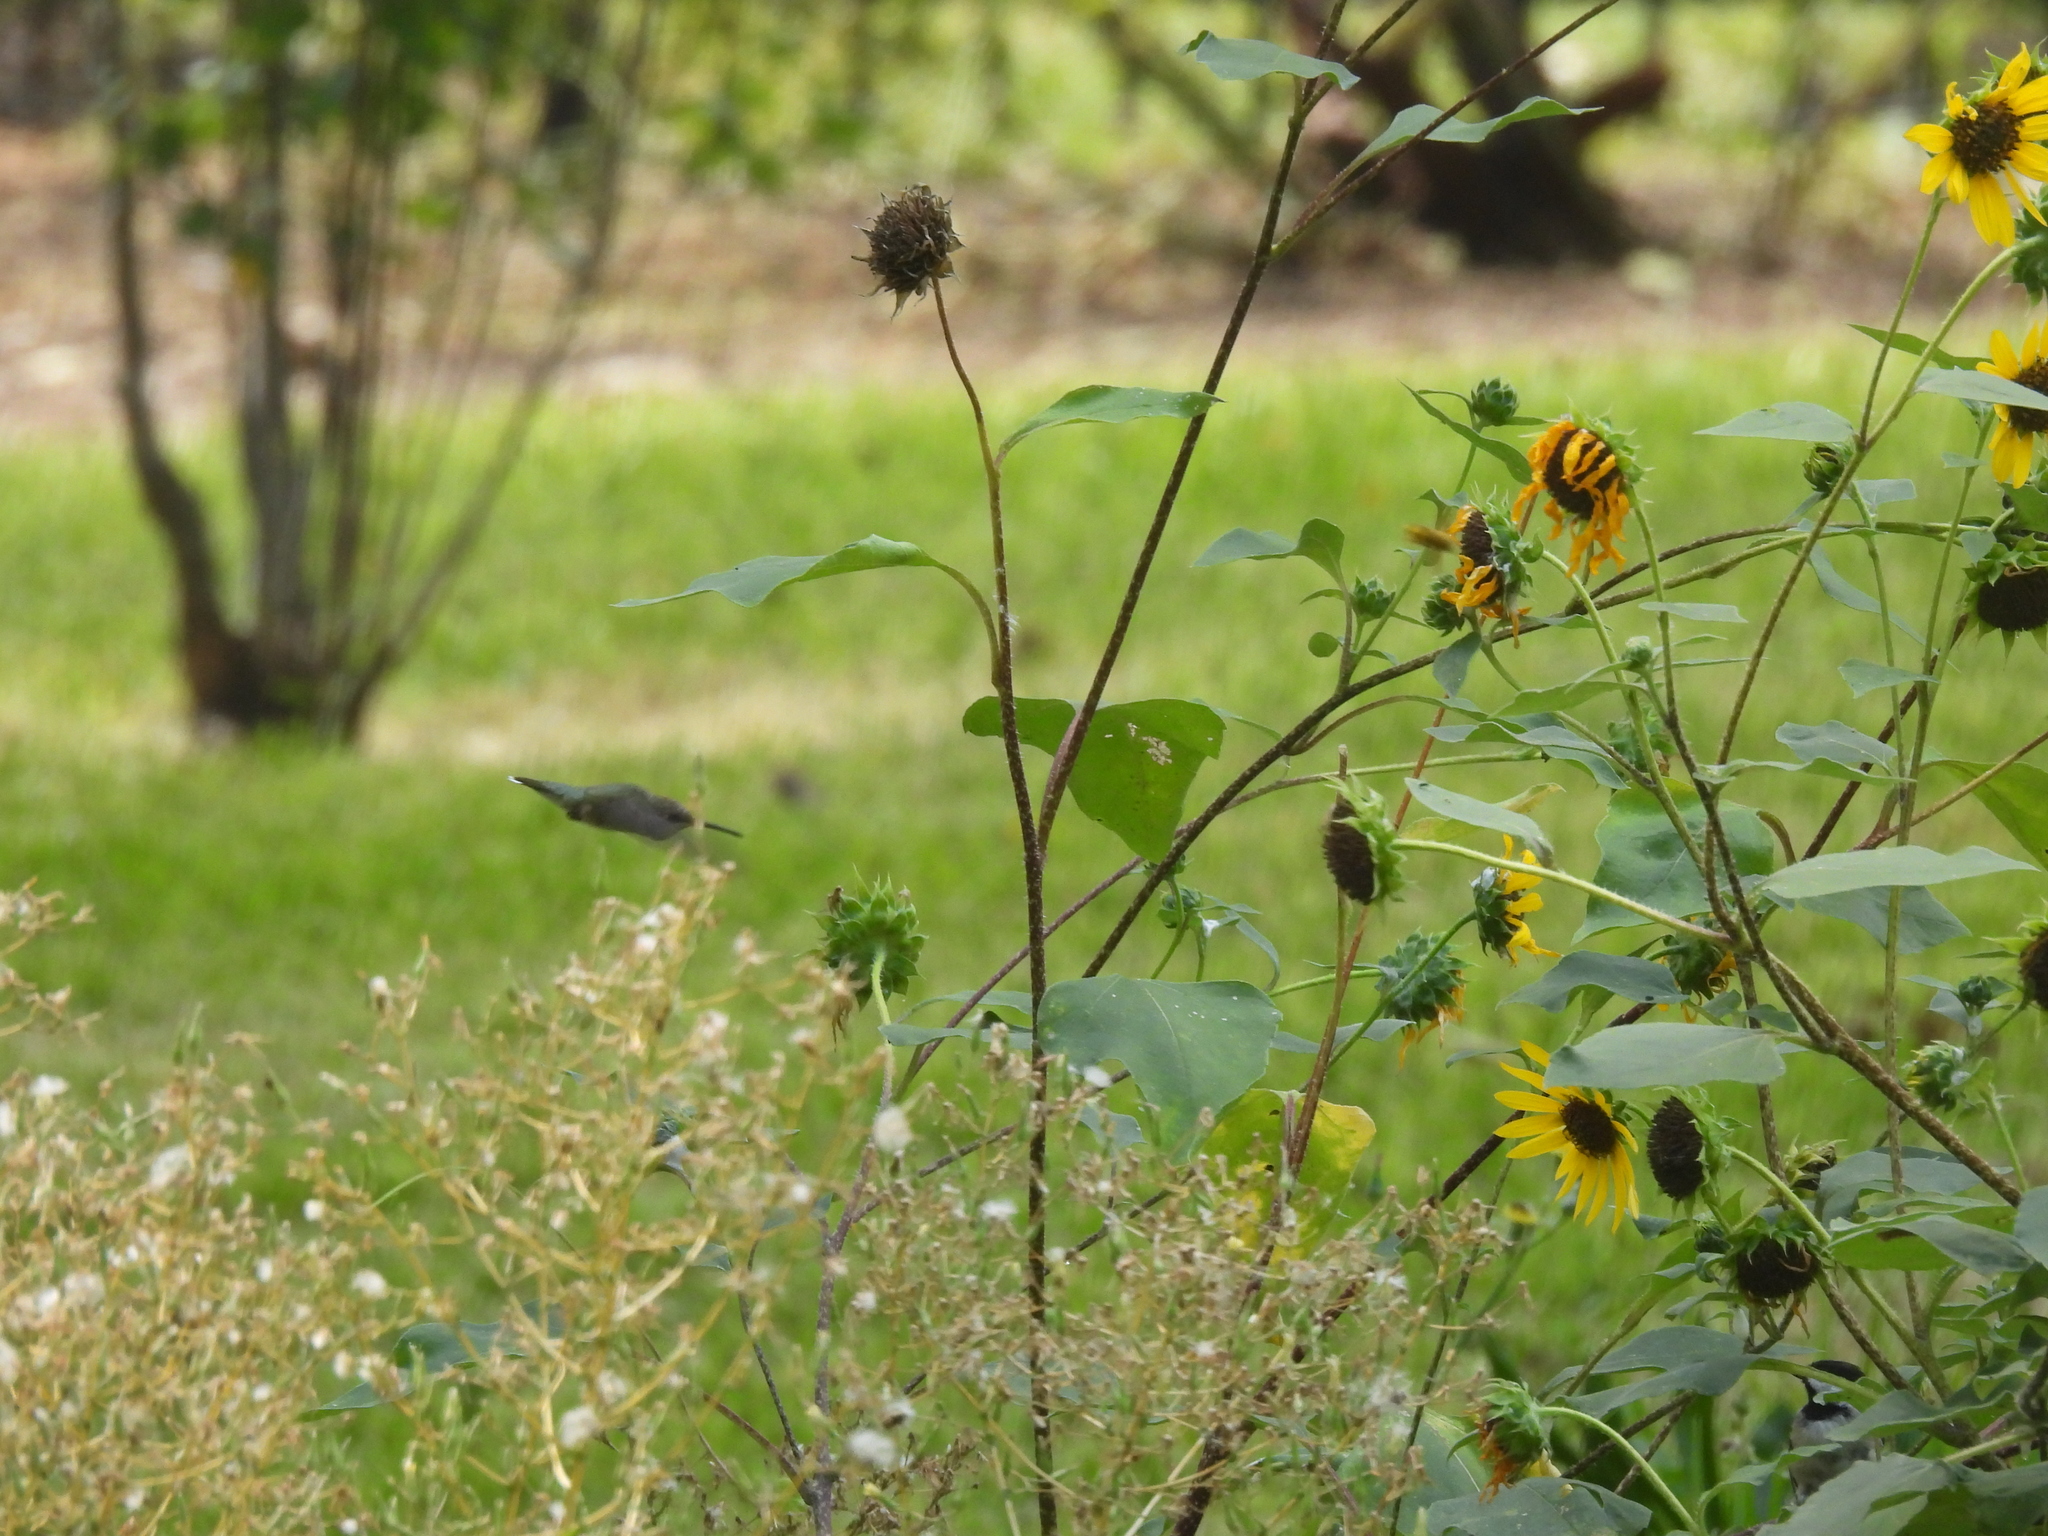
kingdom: Animalia
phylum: Chordata
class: Aves
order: Apodiformes
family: Trochilidae
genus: Archilochus
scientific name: Archilochus alexandri
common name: Black-chinned hummingbird
